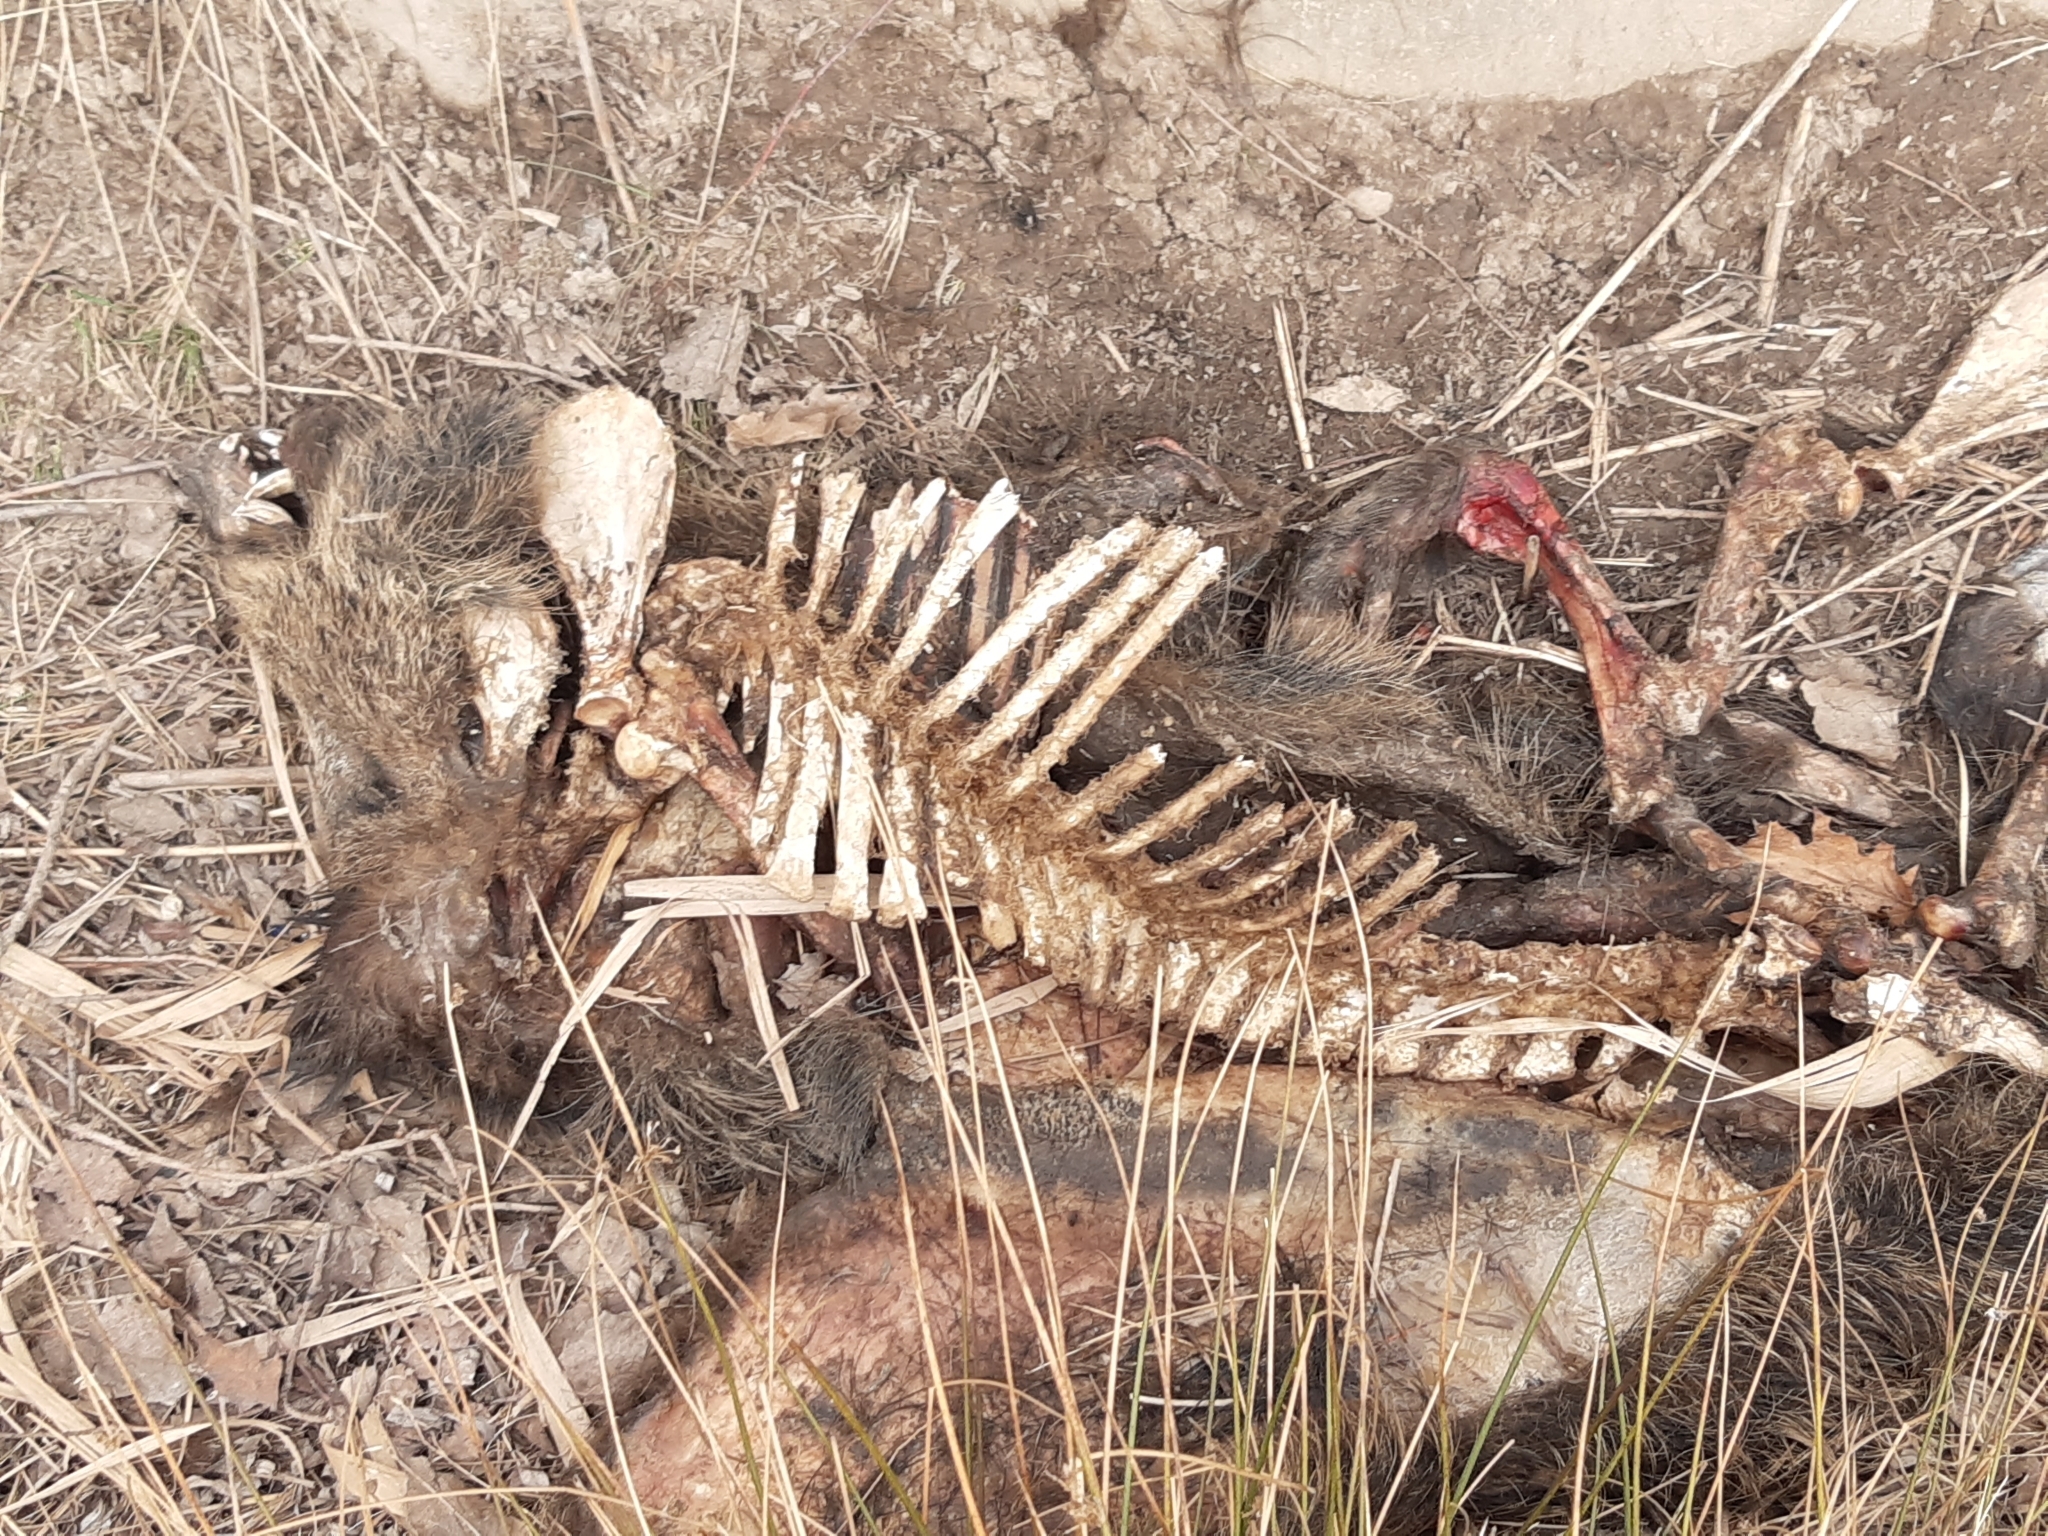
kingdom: Animalia
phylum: Chordata
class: Mammalia
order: Artiodactyla
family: Suidae
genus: Sus
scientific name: Sus scrofa
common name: Wild boar
